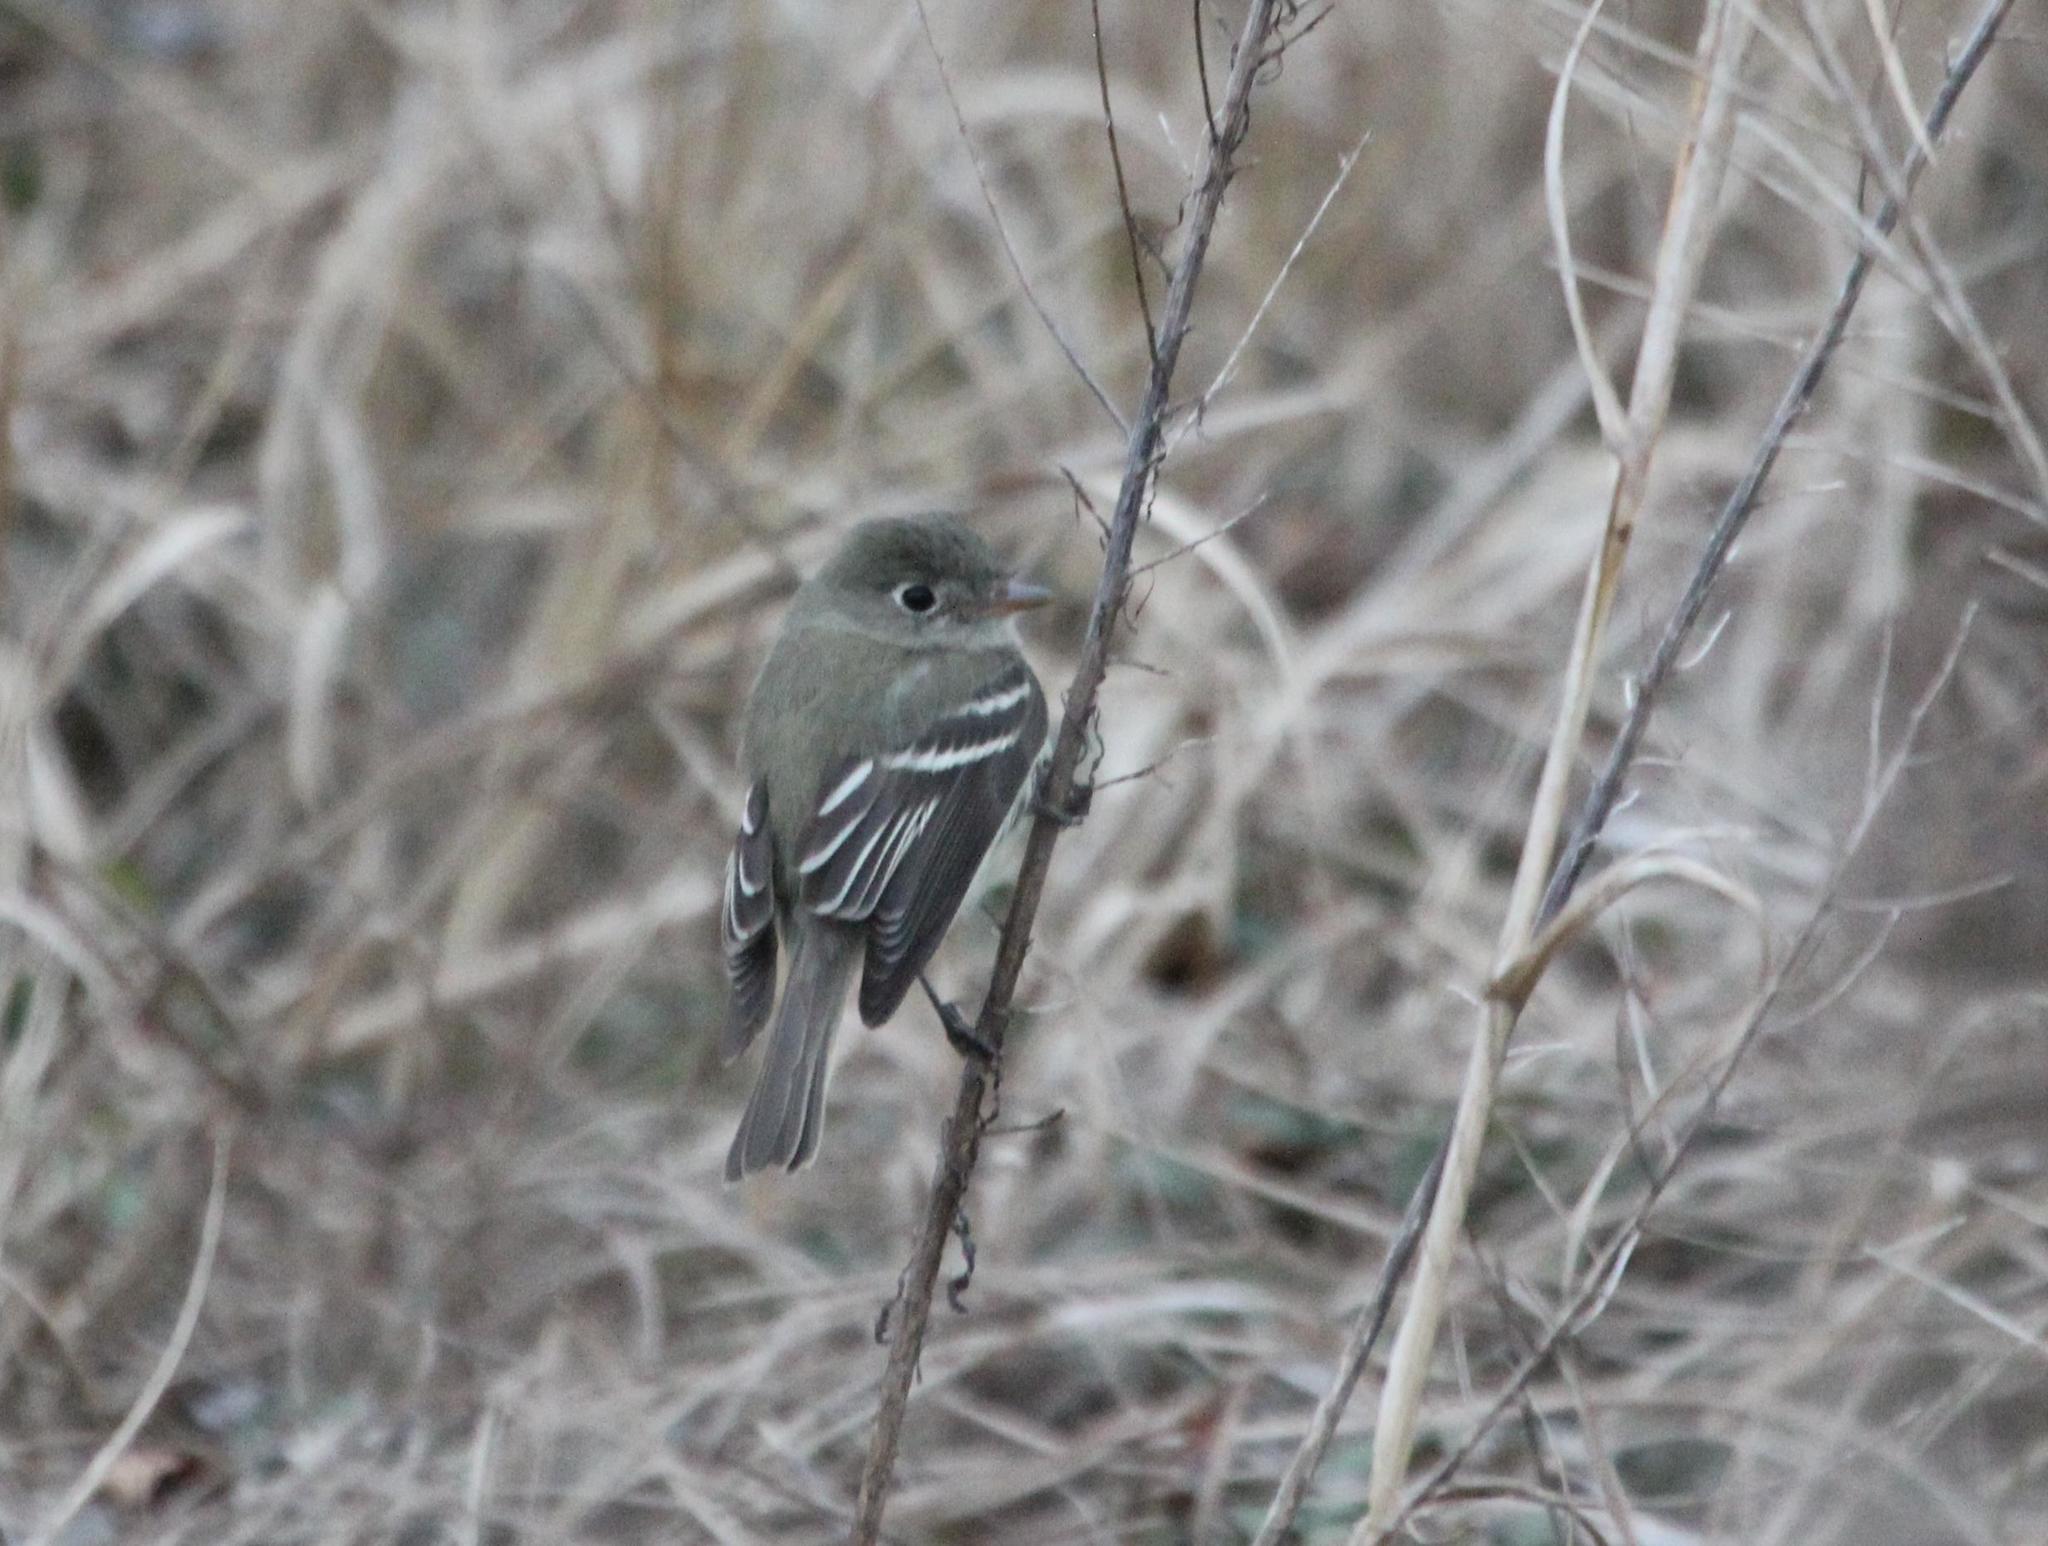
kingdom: Animalia
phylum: Chordata
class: Aves
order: Passeriformes
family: Tyrannidae
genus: Empidonax
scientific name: Empidonax minimus
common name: Least flycatcher
